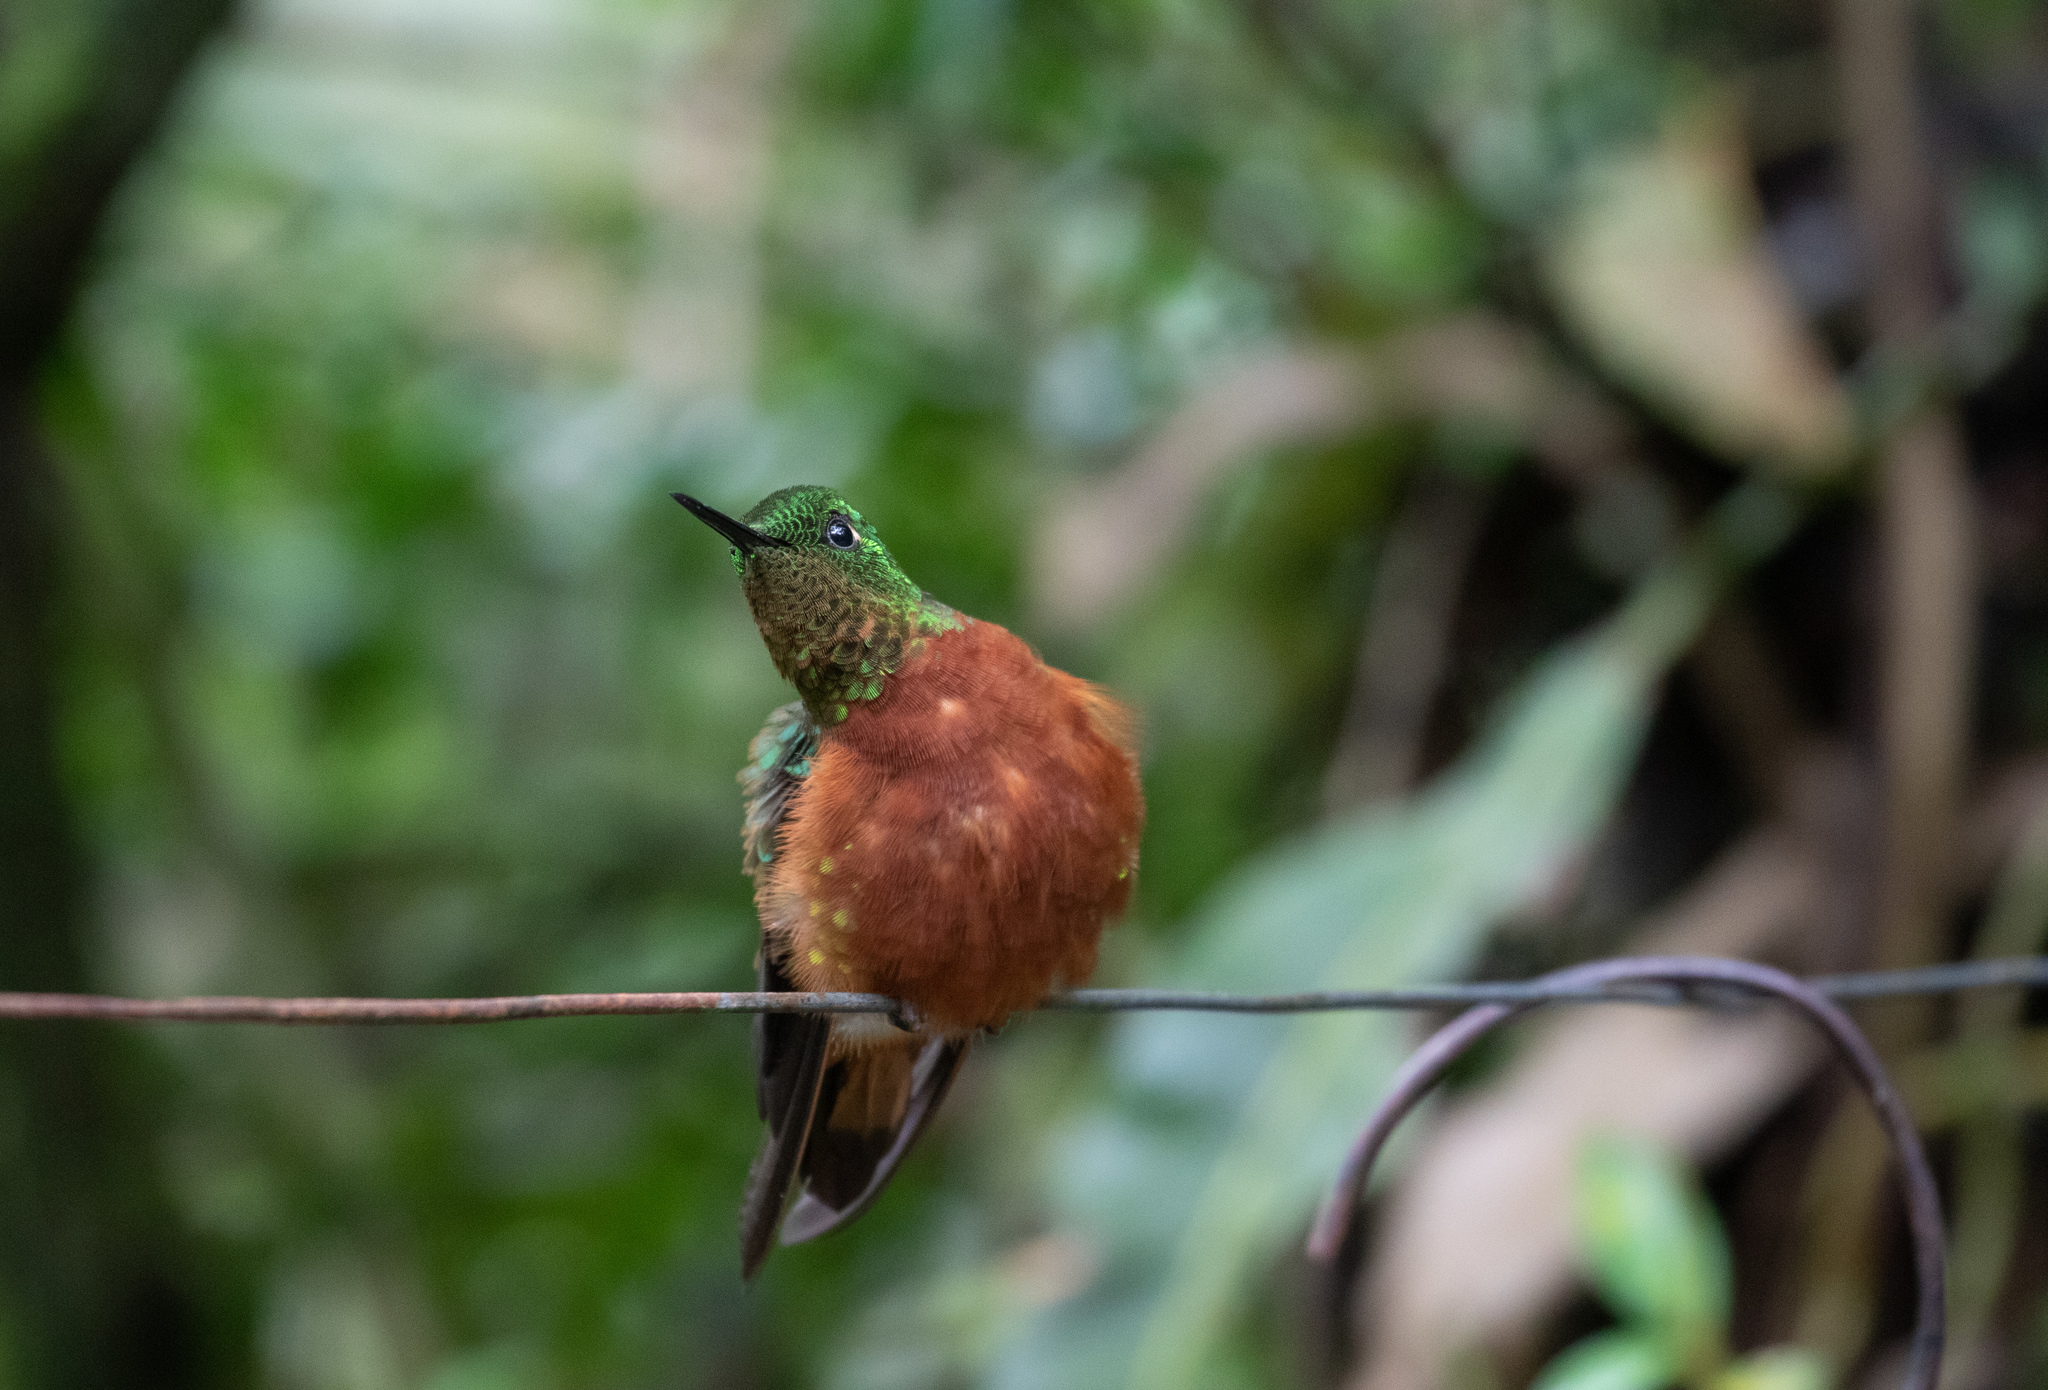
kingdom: Animalia
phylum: Chordata
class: Aves
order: Apodiformes
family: Trochilidae
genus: Boissonneaua
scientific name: Boissonneaua matthewsii
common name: Chestnut-breasted coronet
